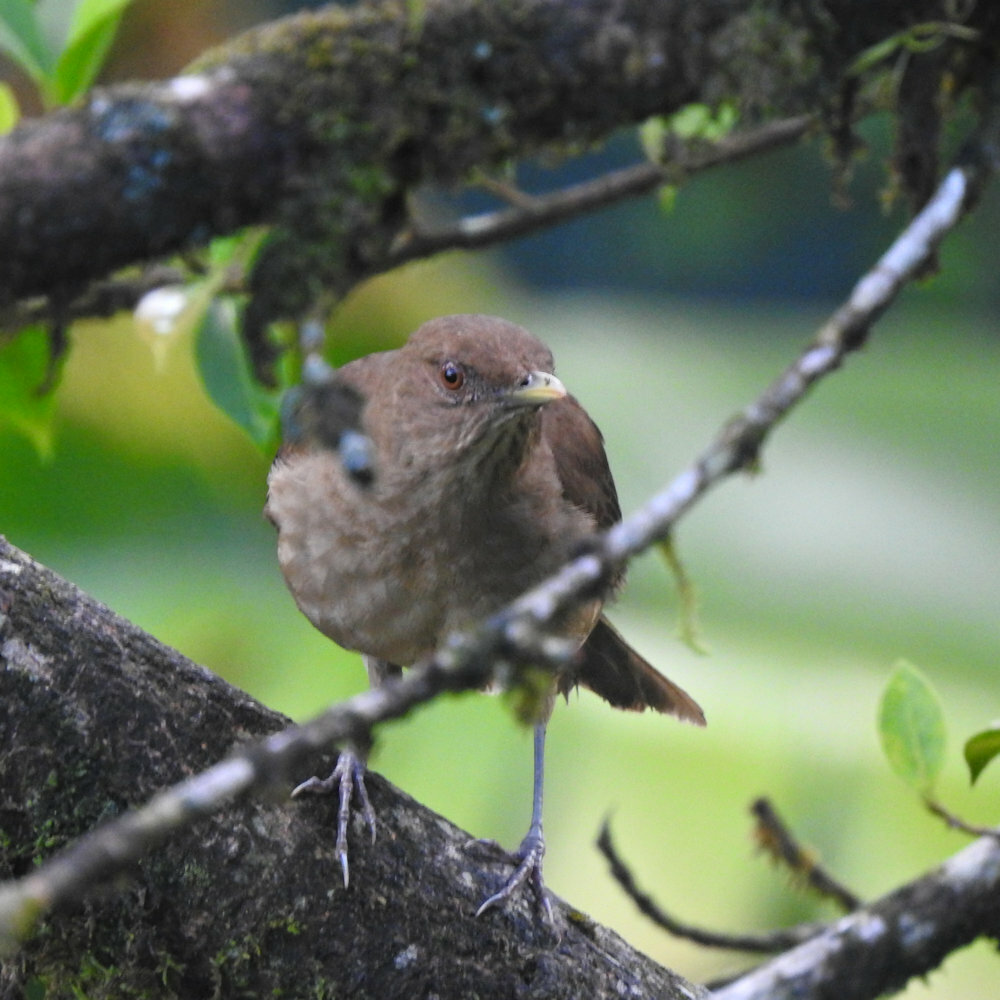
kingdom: Animalia
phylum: Chordata
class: Aves
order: Passeriformes
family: Turdidae
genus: Turdus
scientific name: Turdus grayi
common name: Clay-colored thrush
